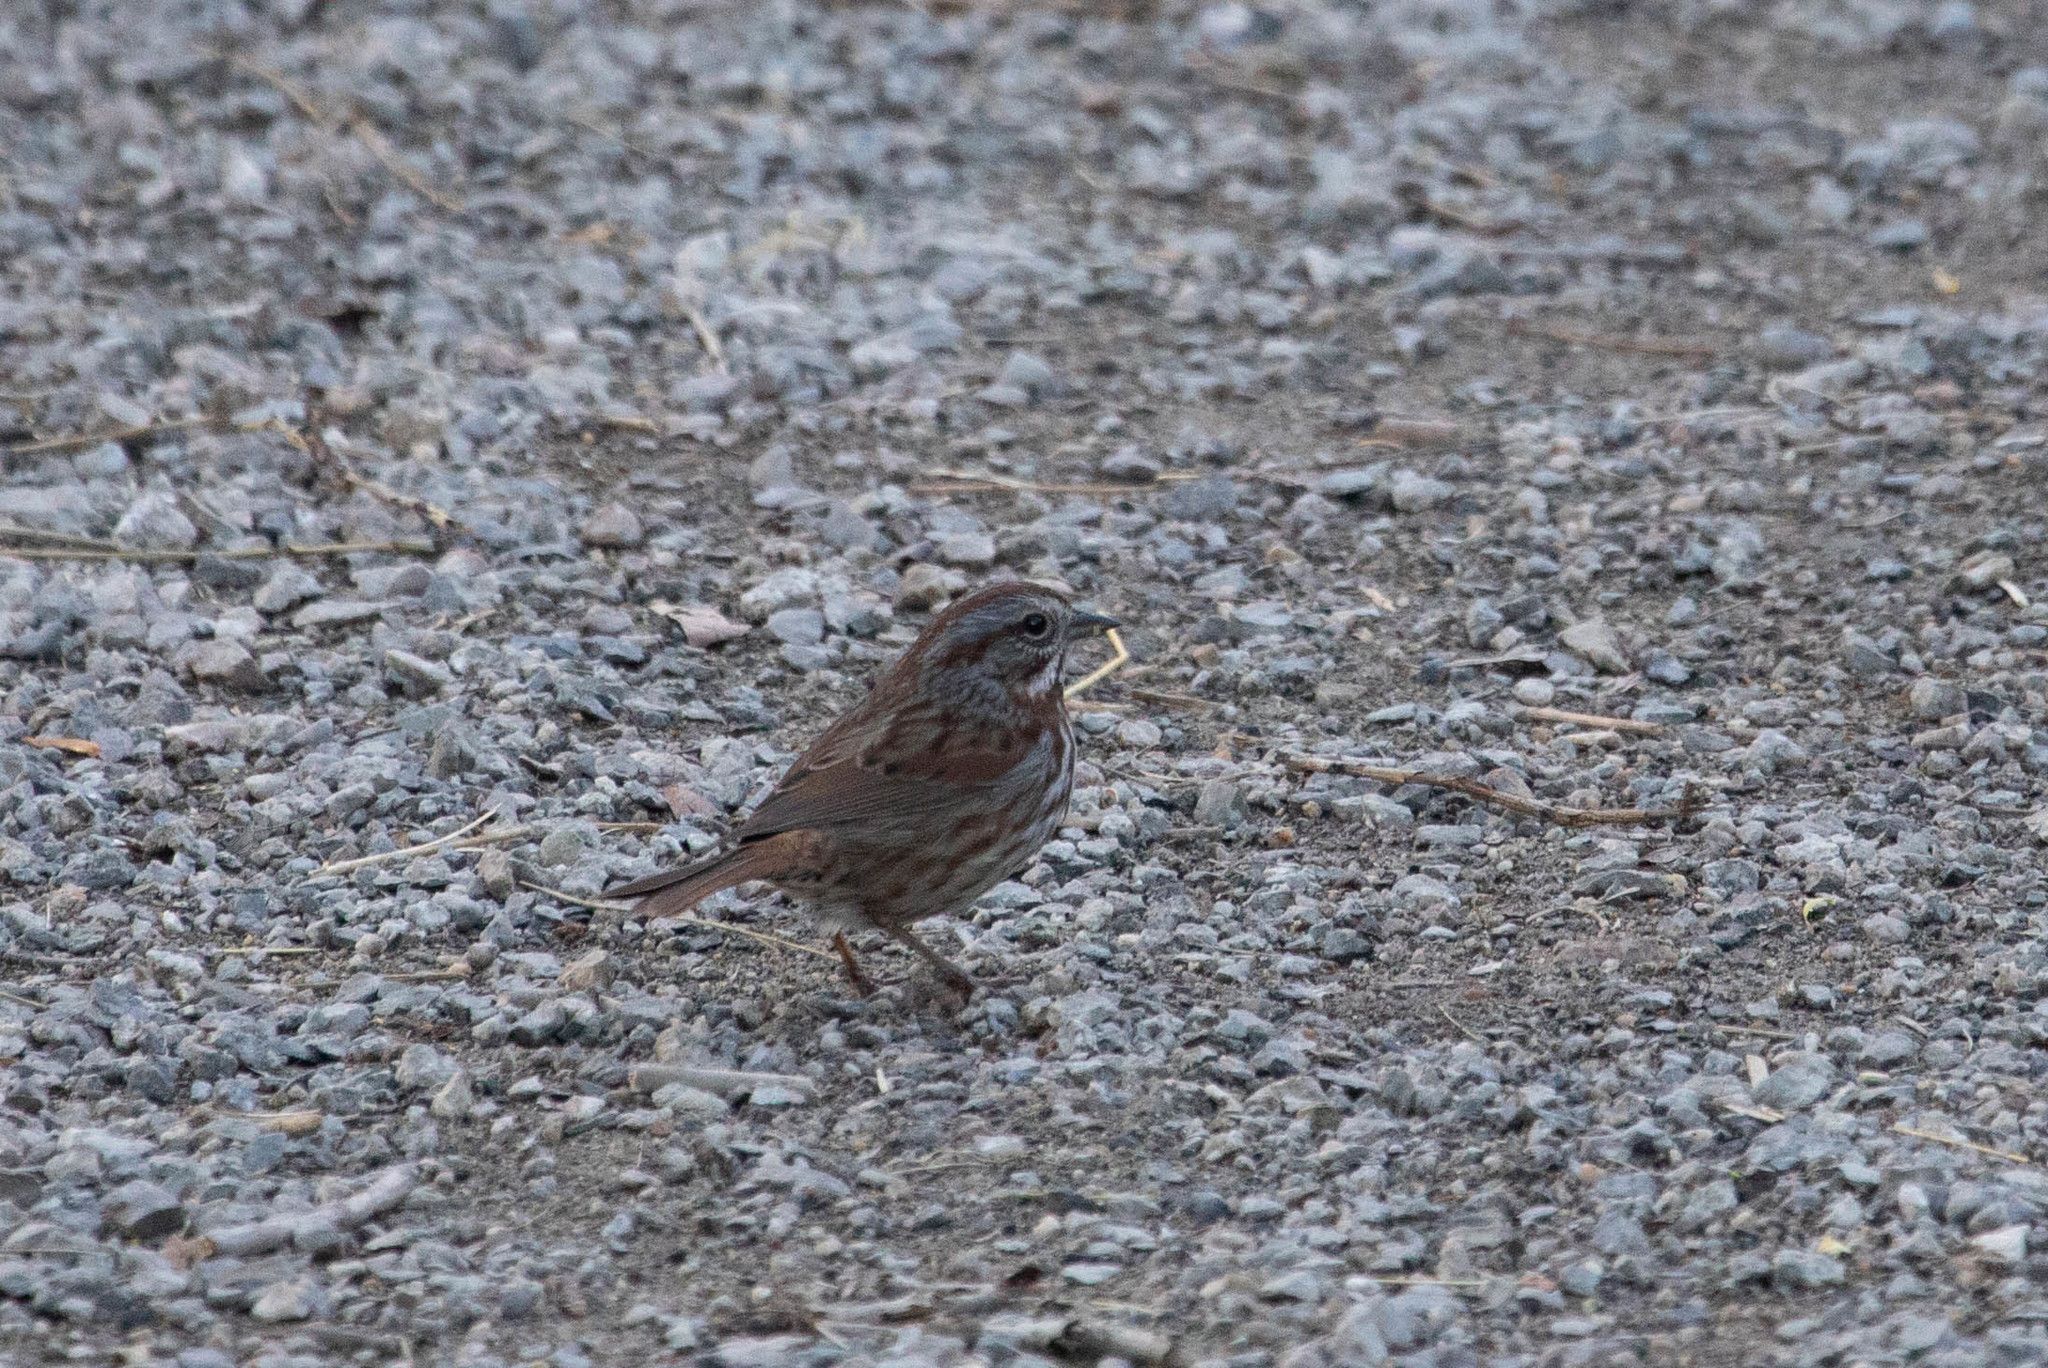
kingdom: Animalia
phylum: Chordata
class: Aves
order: Passeriformes
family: Passerellidae
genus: Melospiza
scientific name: Melospiza melodia
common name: Song sparrow
